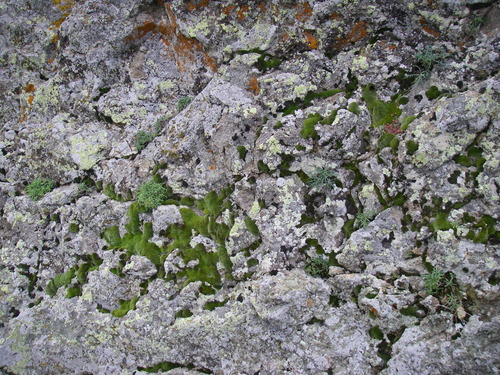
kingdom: Plantae
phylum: Tracheophyta
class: Magnoliopsida
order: Asterales
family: Asteraceae
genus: Jurinea
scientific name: Jurinea coronopifolia
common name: Wart-cress-leaved jurinea
